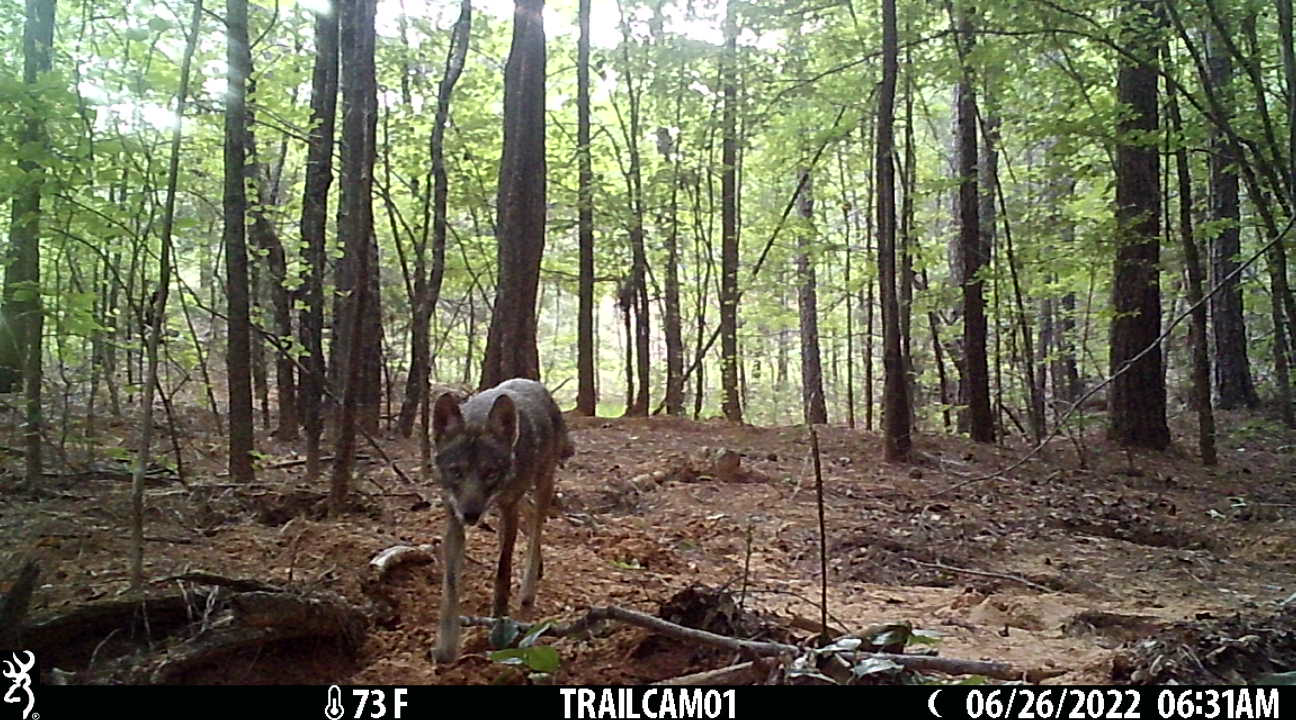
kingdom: Animalia
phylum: Chordata
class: Mammalia
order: Carnivora
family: Canidae
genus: Canis
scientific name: Canis latrans
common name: Coyote
